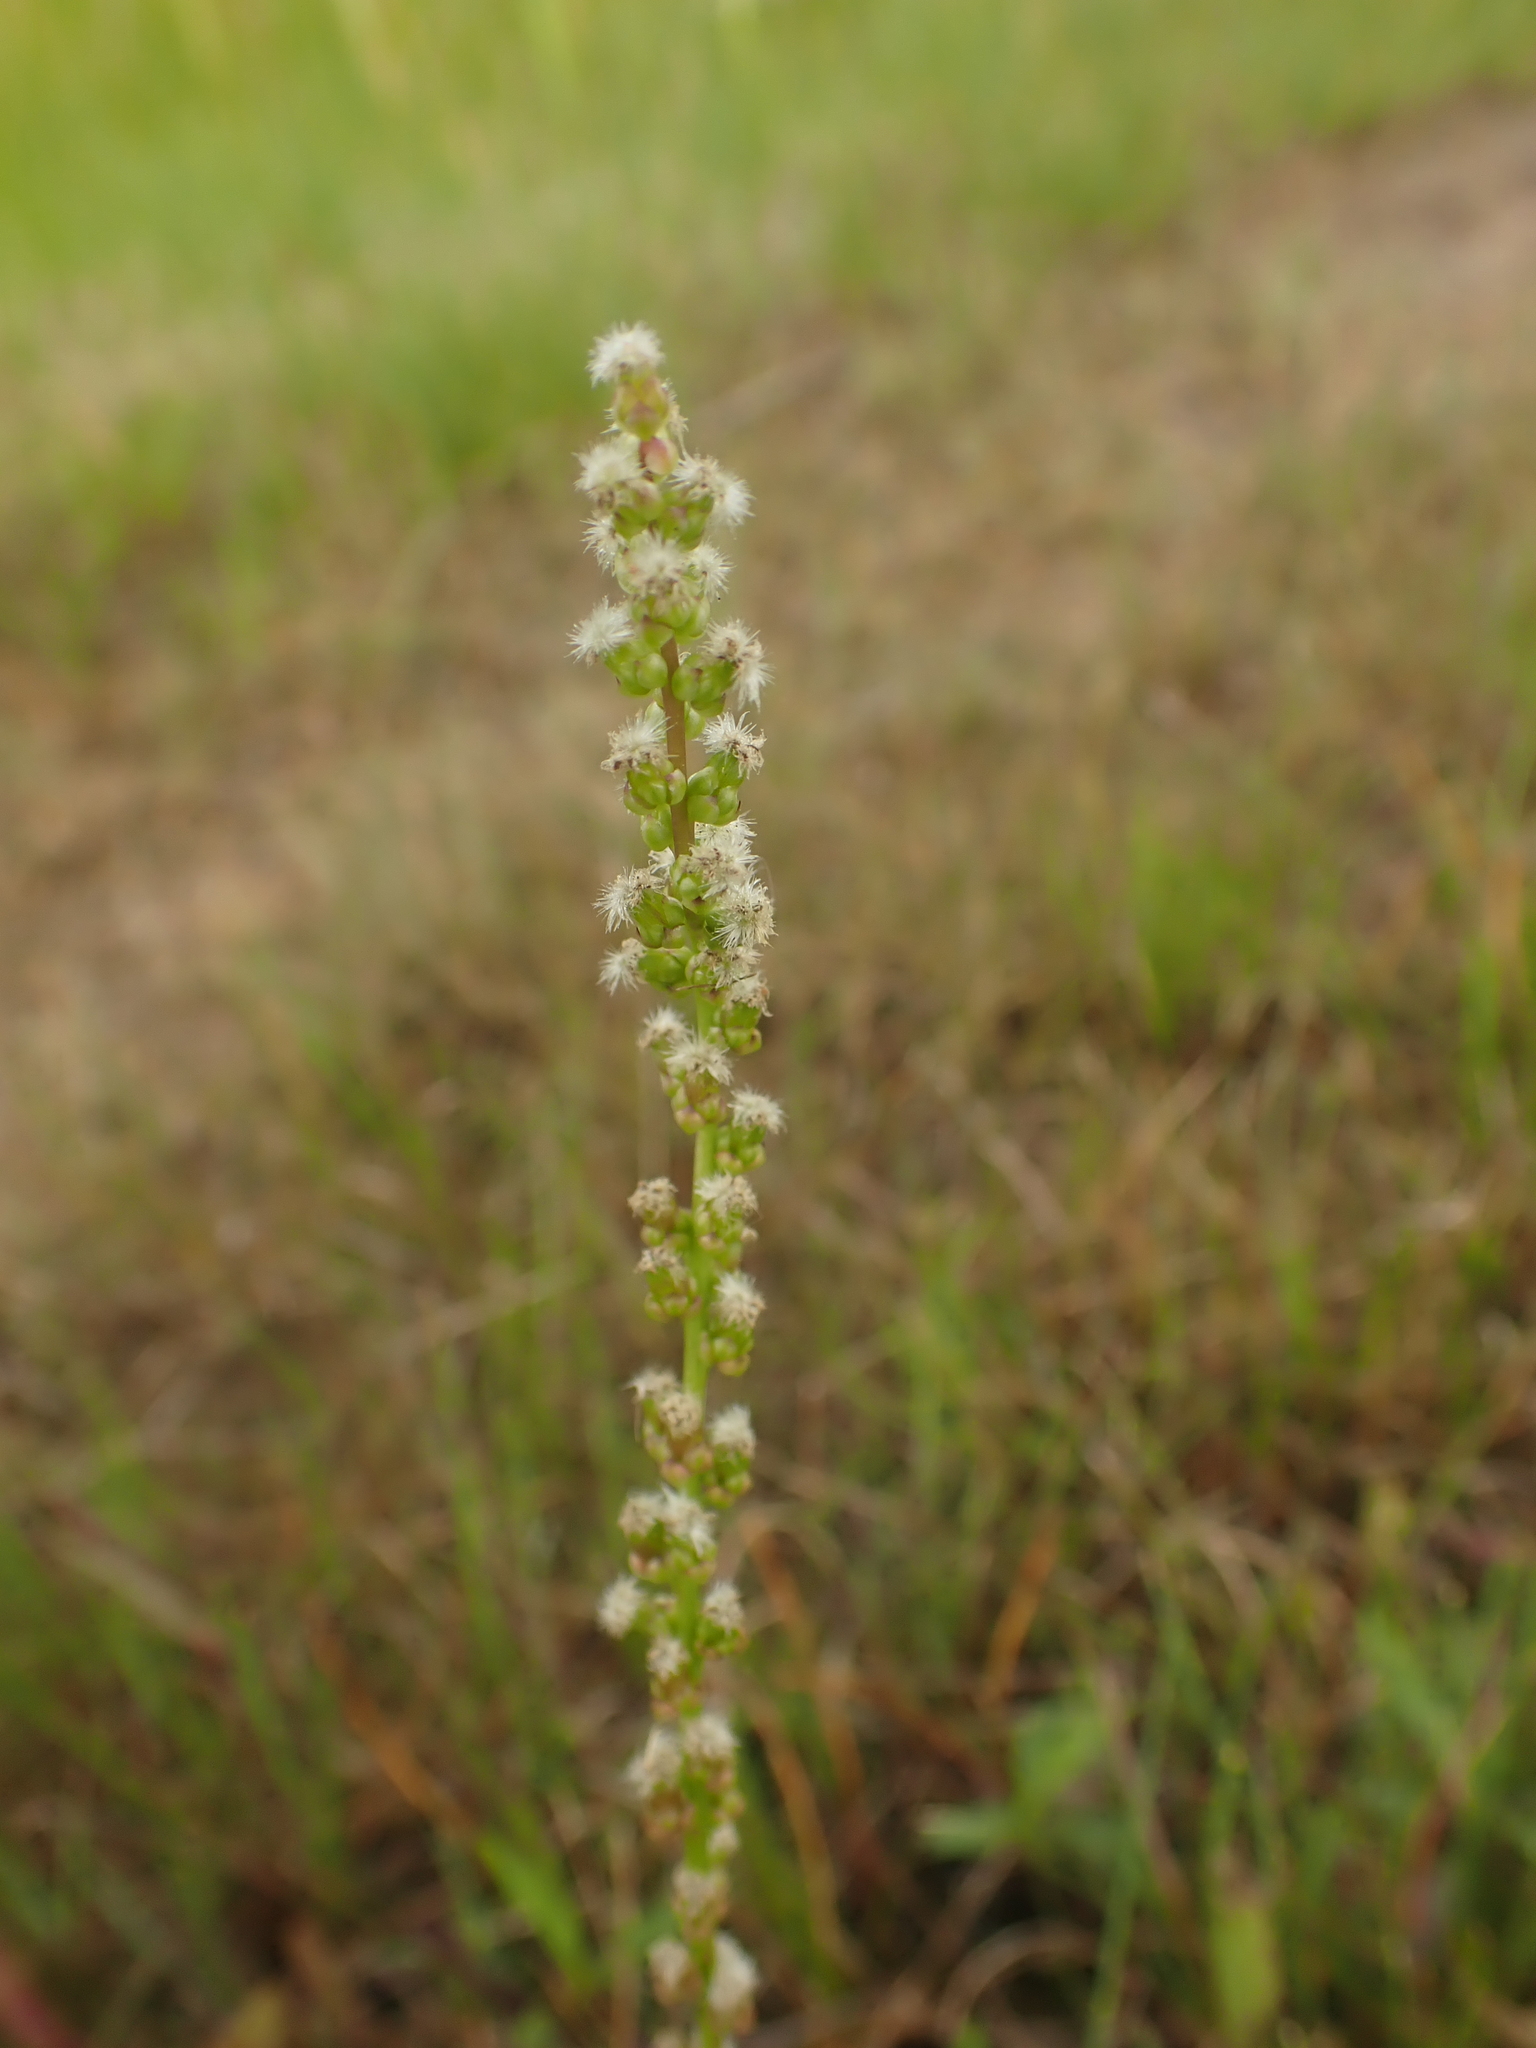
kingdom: Plantae
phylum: Tracheophyta
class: Liliopsida
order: Alismatales
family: Juncaginaceae
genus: Triglochin
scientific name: Triglochin maritima
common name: Sea arrowgrass
